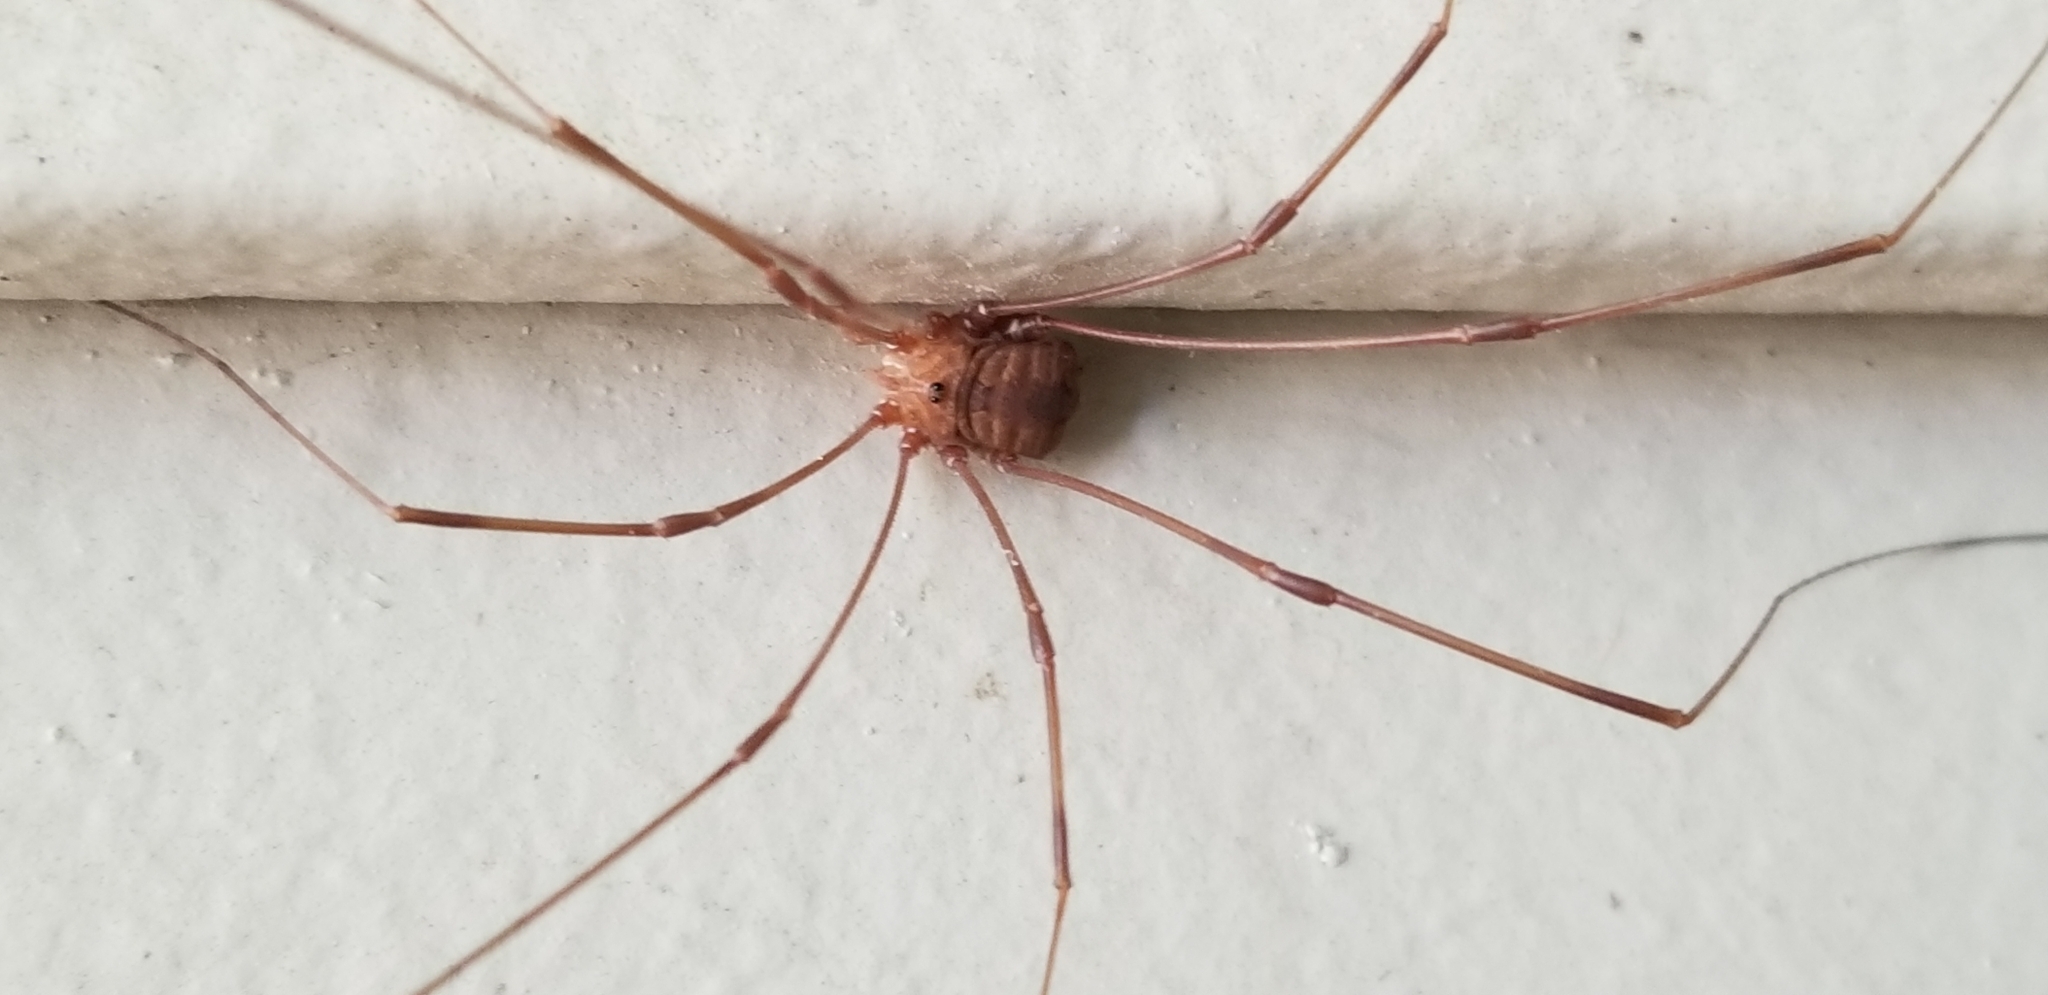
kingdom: Animalia
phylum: Arthropoda
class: Arachnida
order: Opiliones
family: Sclerosomatidae
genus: Leiobunum
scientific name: Leiobunum flavum
